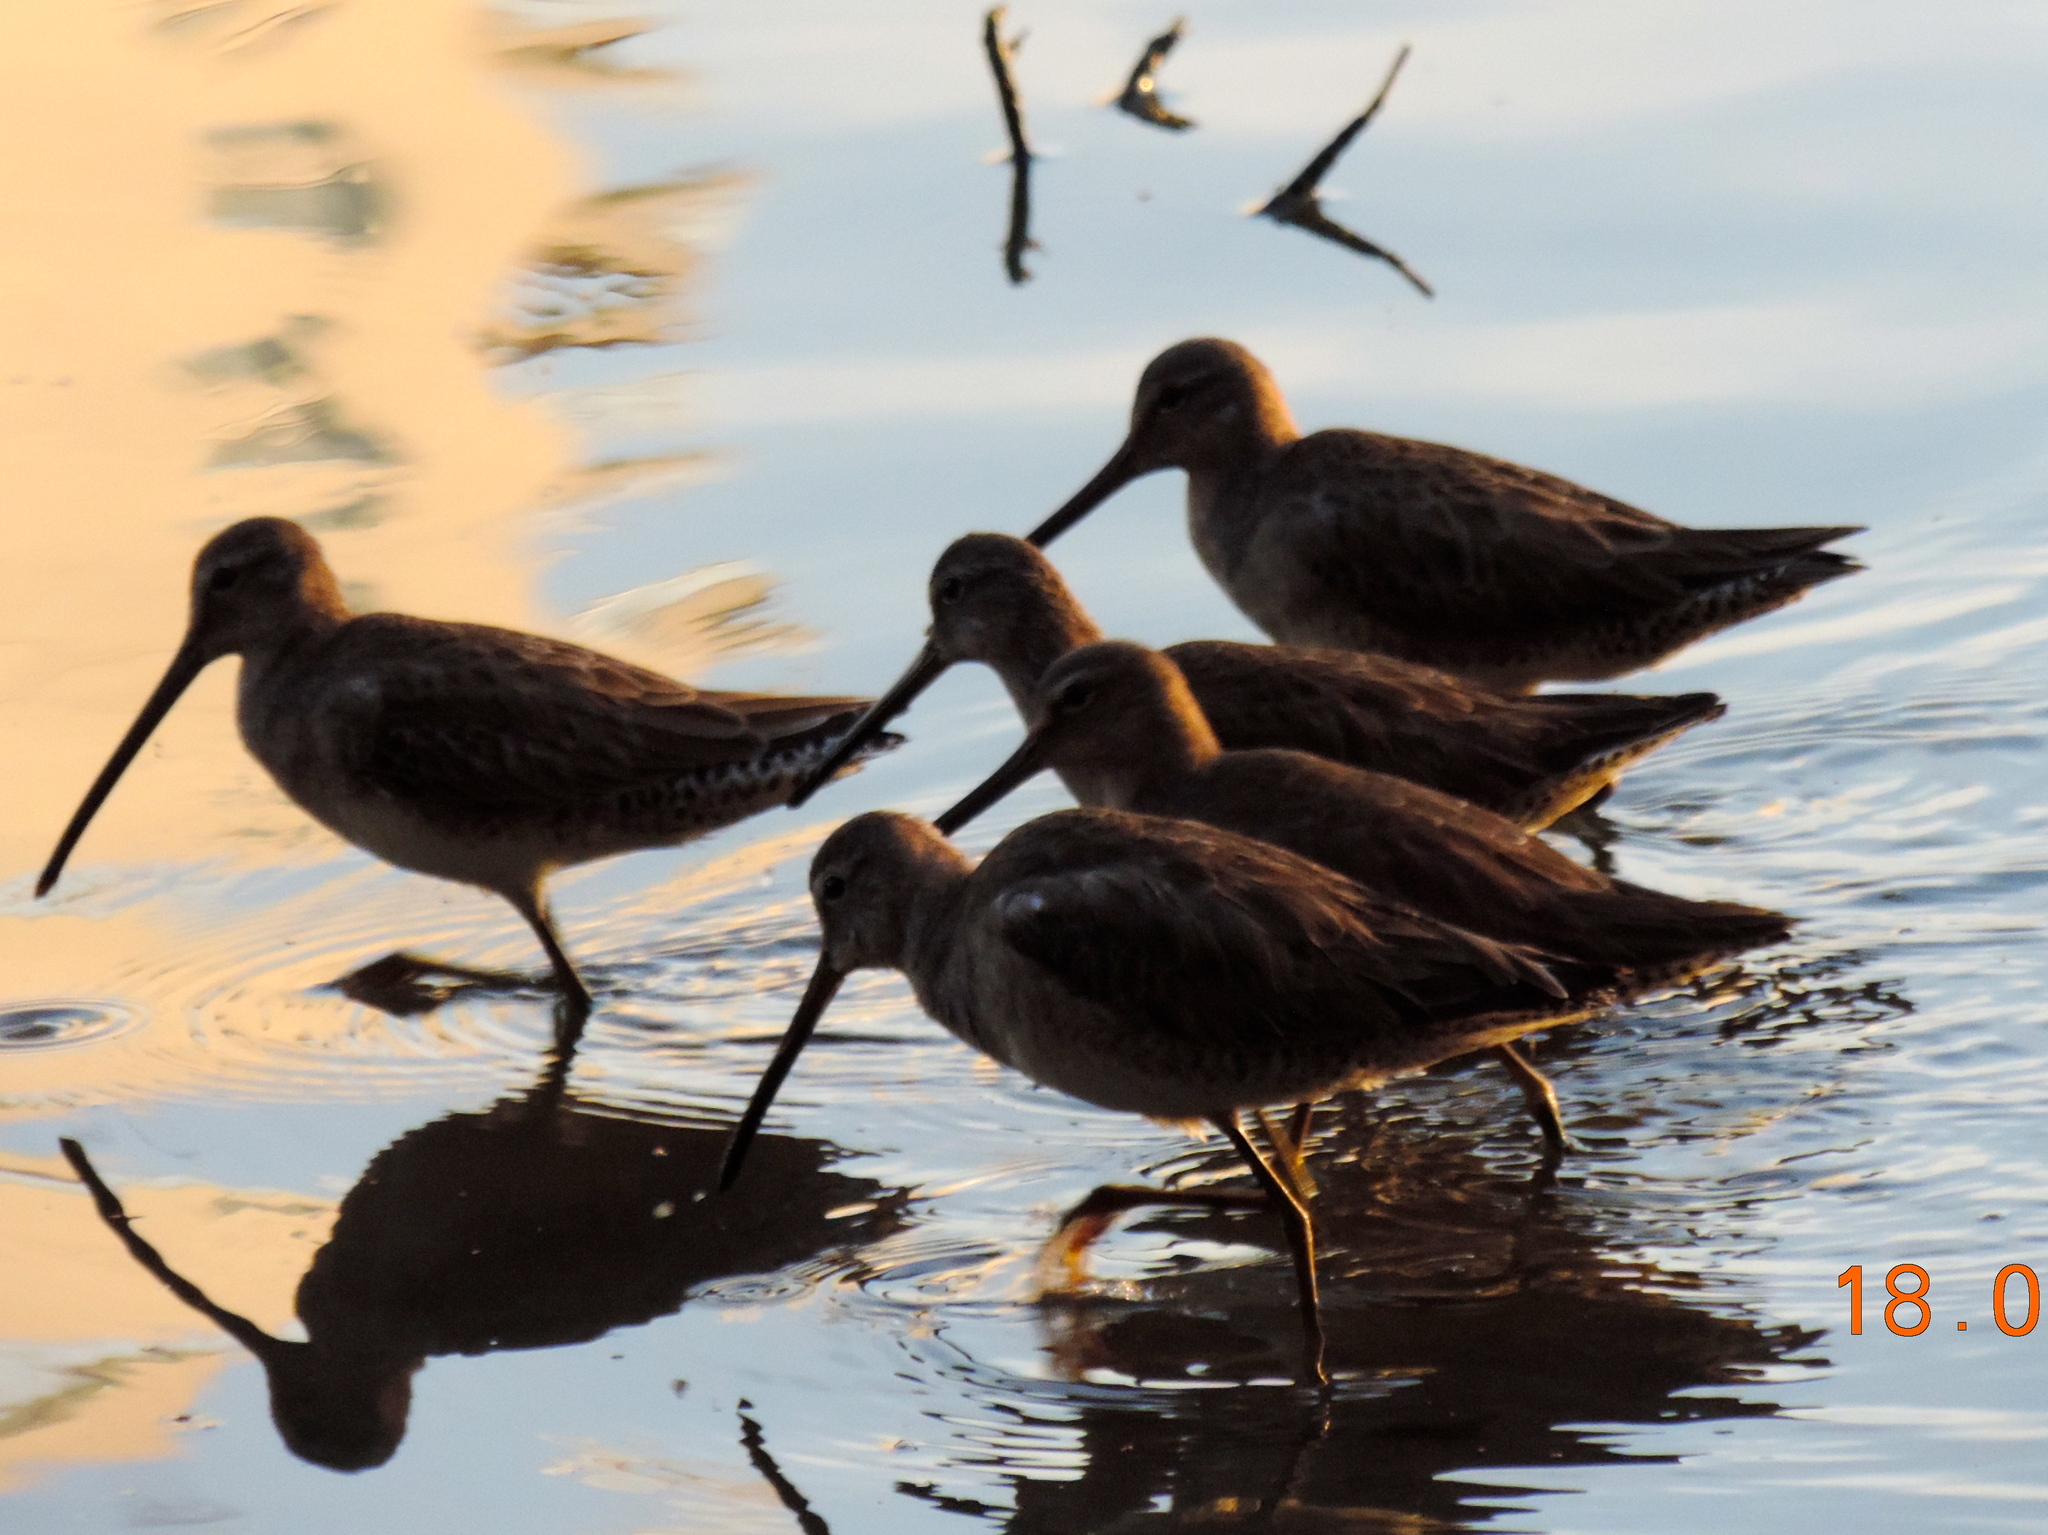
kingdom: Animalia
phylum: Chordata
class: Aves
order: Charadriiformes
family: Scolopacidae
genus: Limnodromus
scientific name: Limnodromus scolopaceus
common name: Long-billed dowitcher
